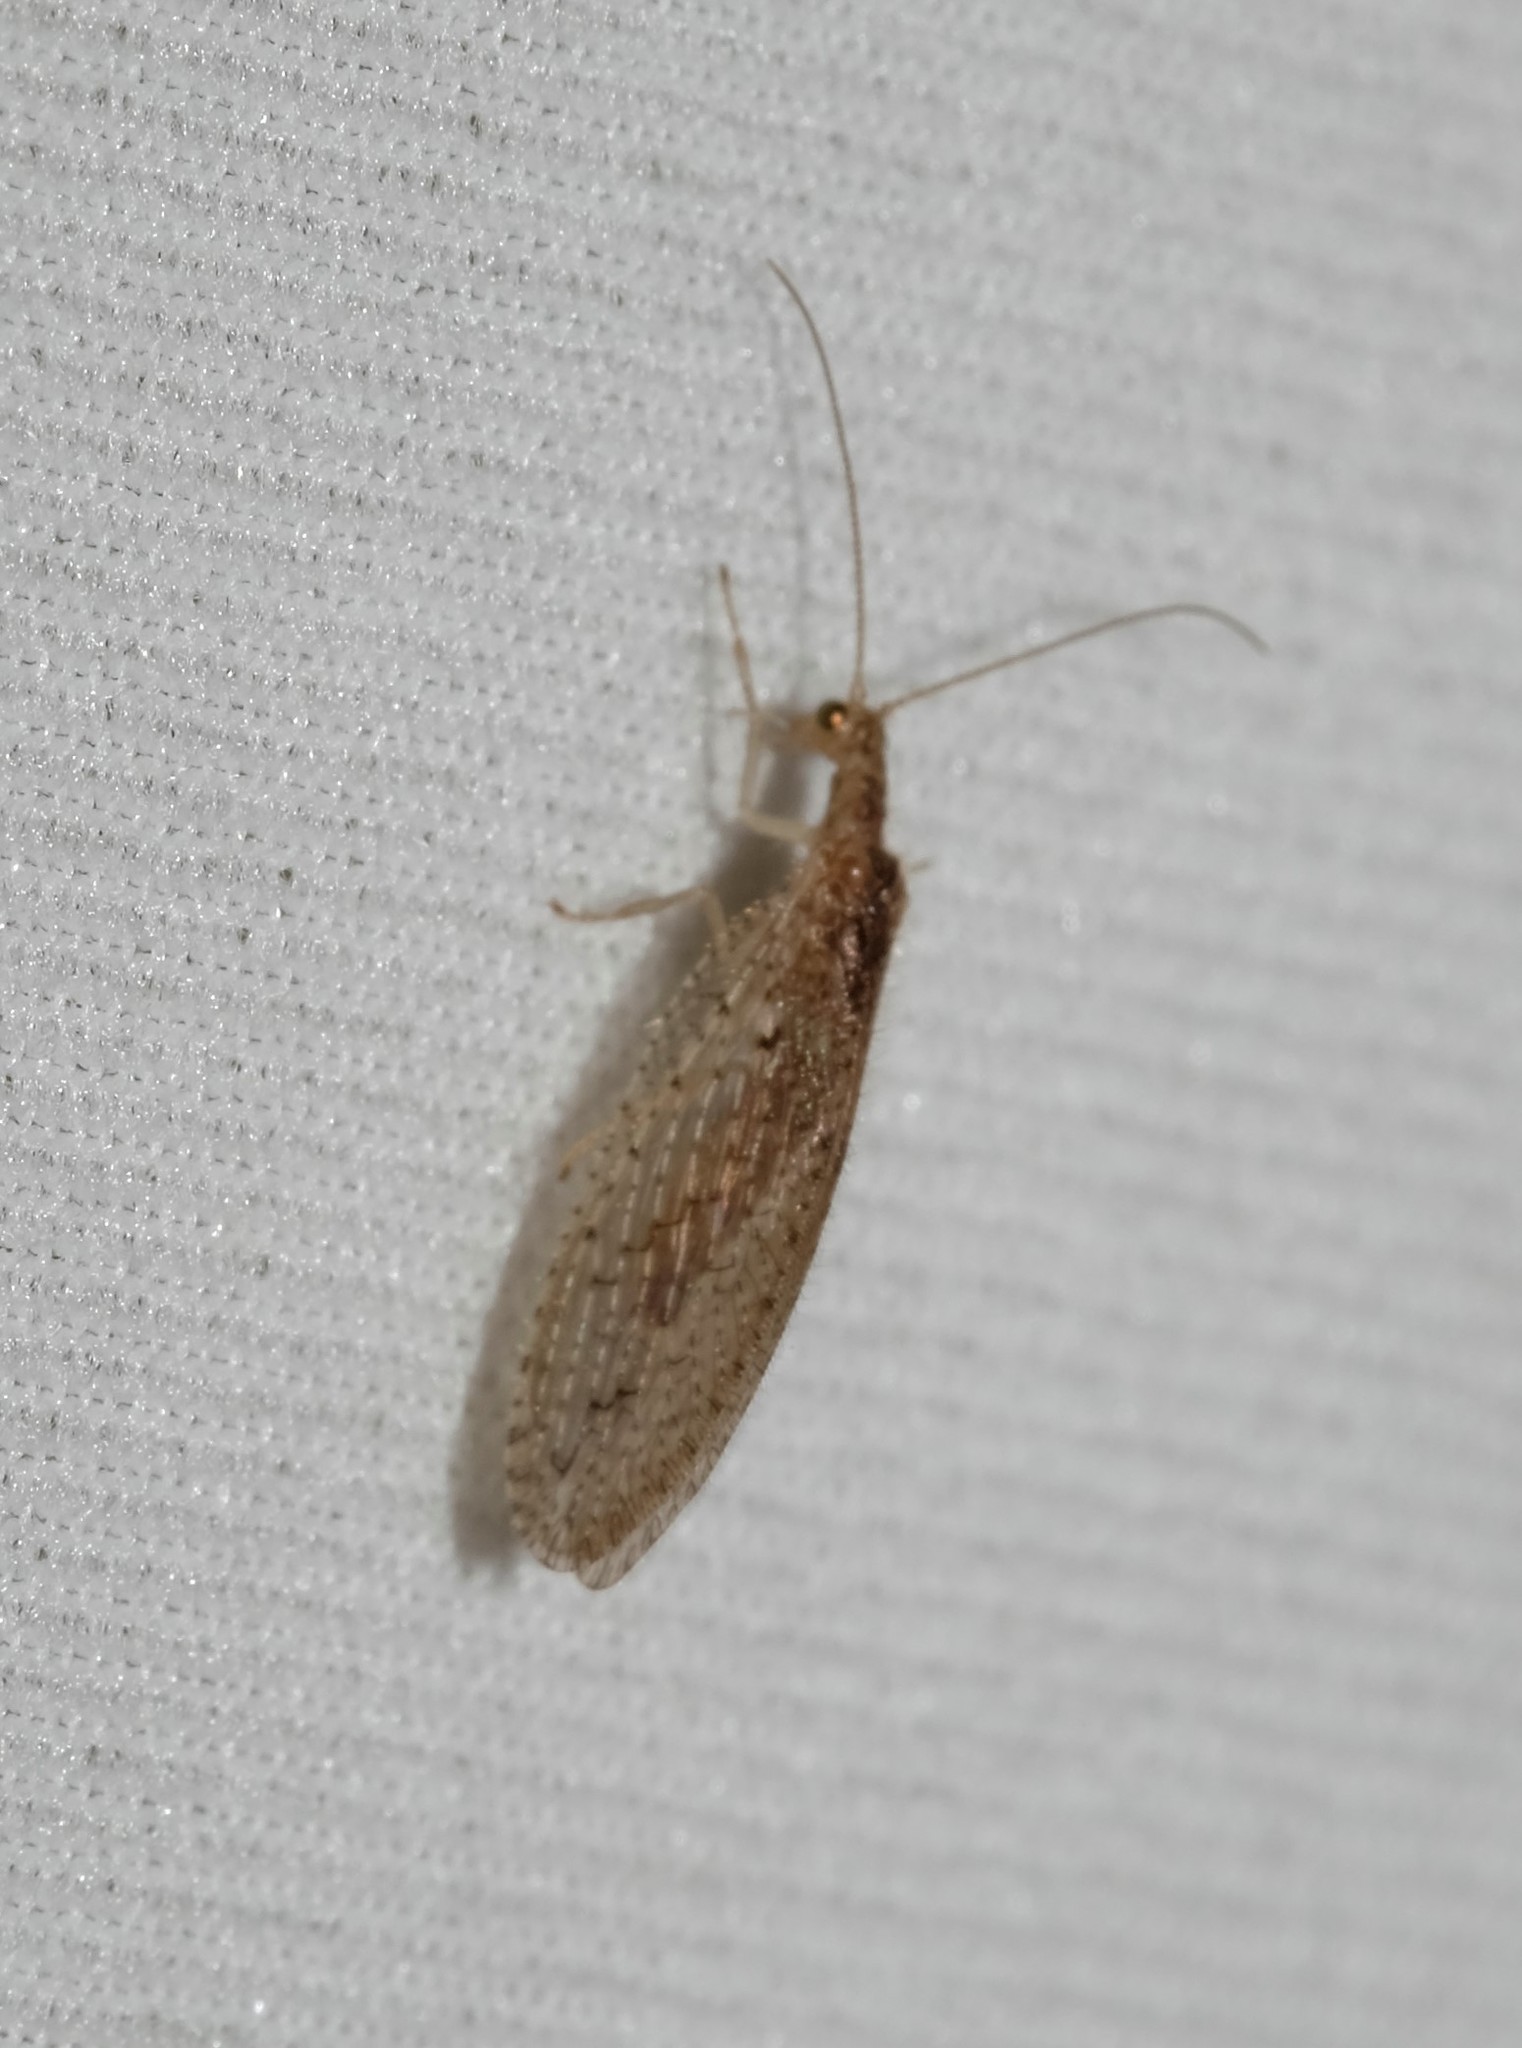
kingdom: Animalia
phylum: Arthropoda
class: Insecta
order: Neuroptera
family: Hemerobiidae
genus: Micromus
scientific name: Micromus tasmaniae
